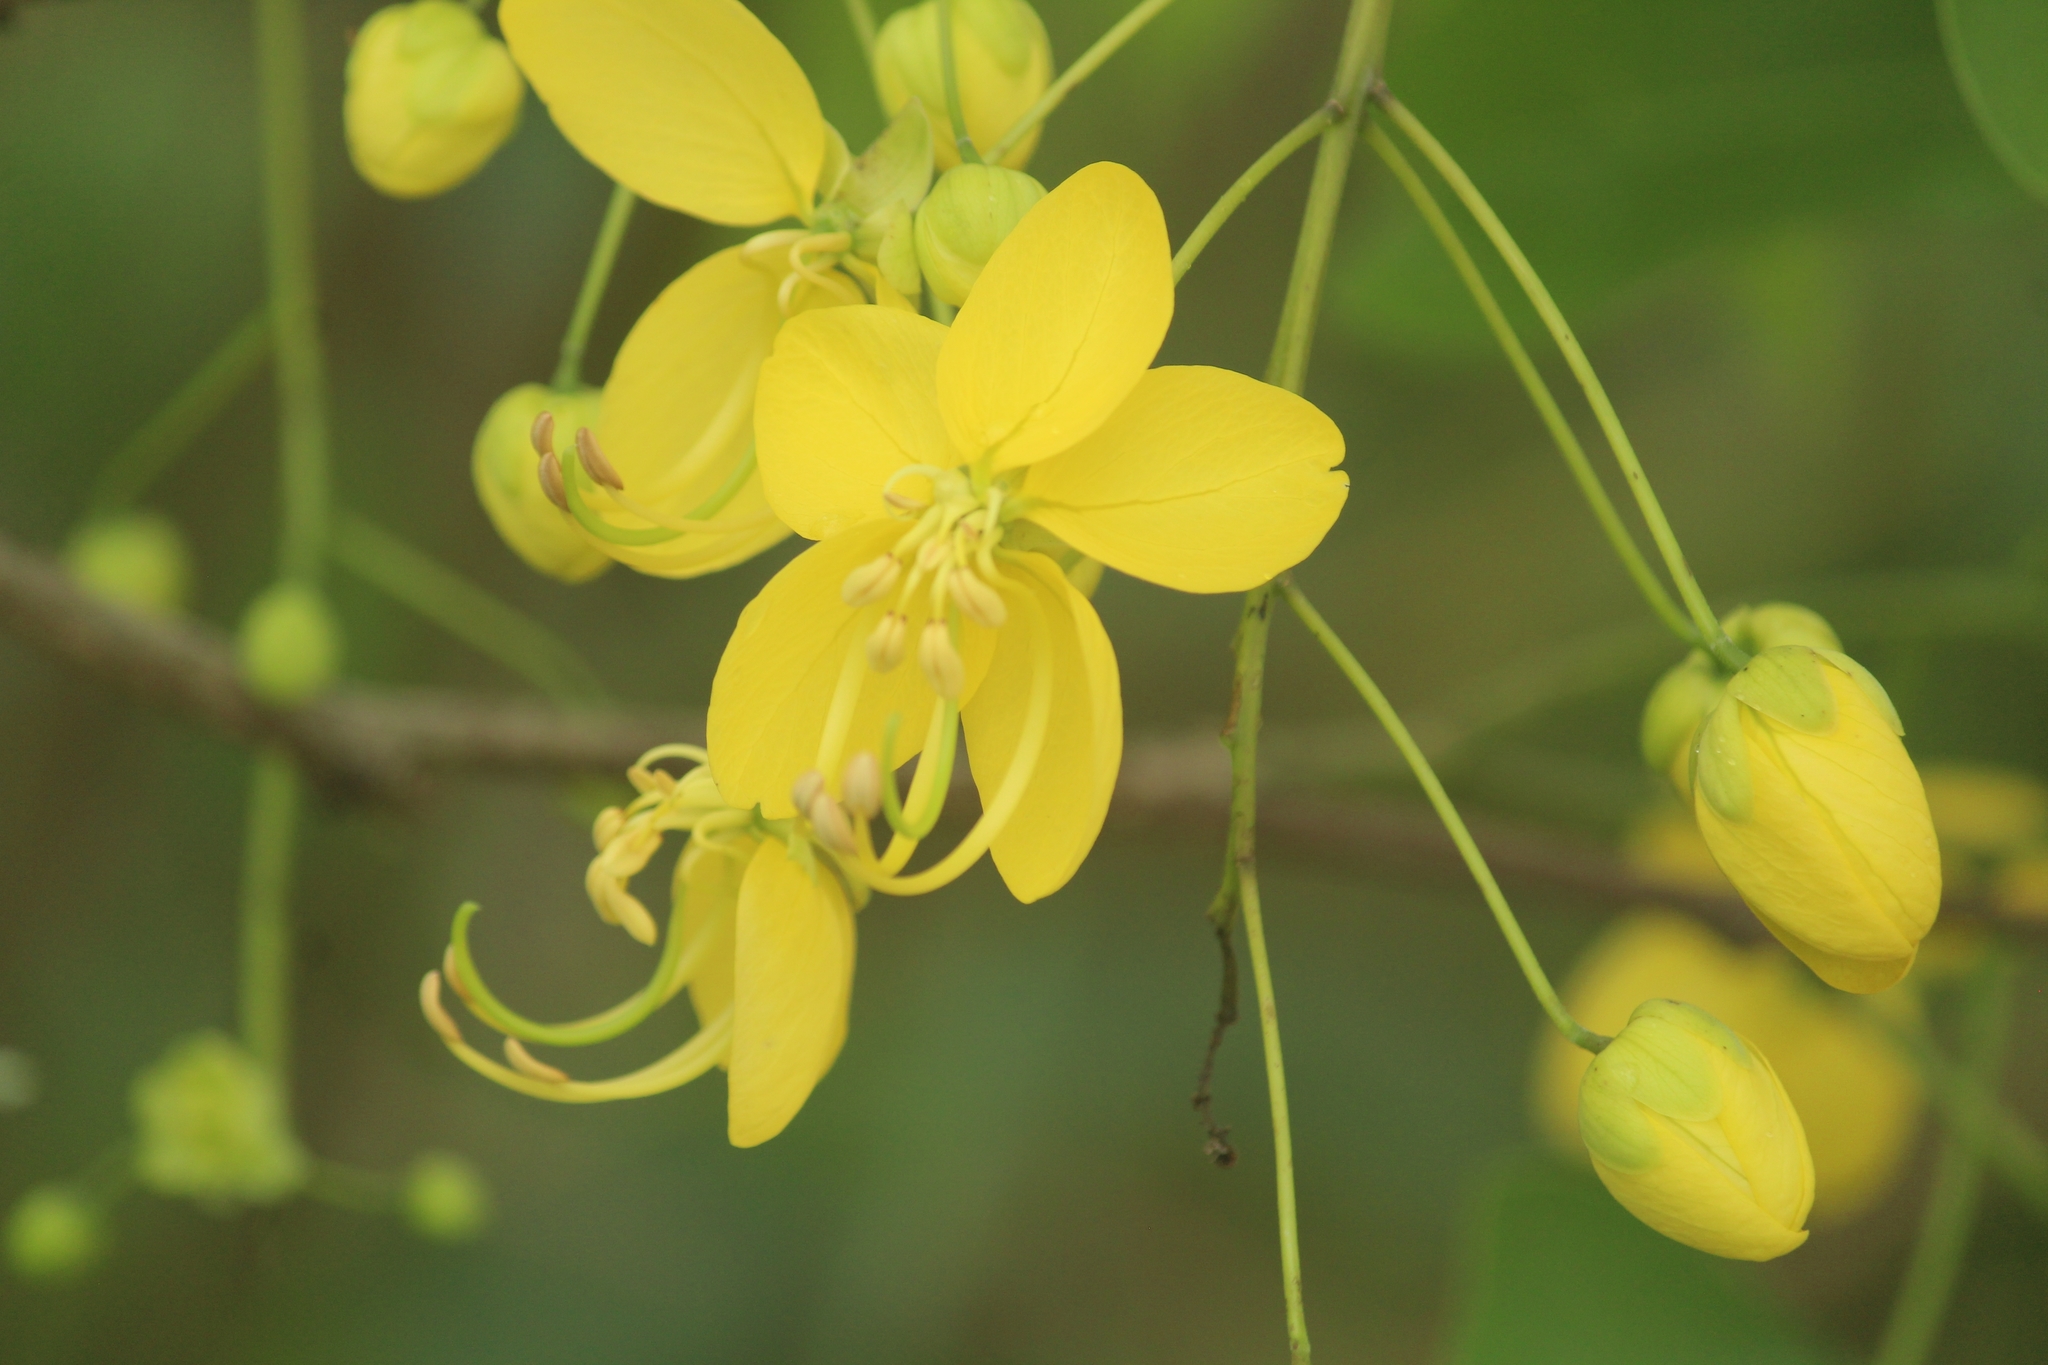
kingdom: Plantae
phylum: Tracheophyta
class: Magnoliopsida
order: Fabales
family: Fabaceae
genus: Cassia
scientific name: Cassia fistula
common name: Golden shower
